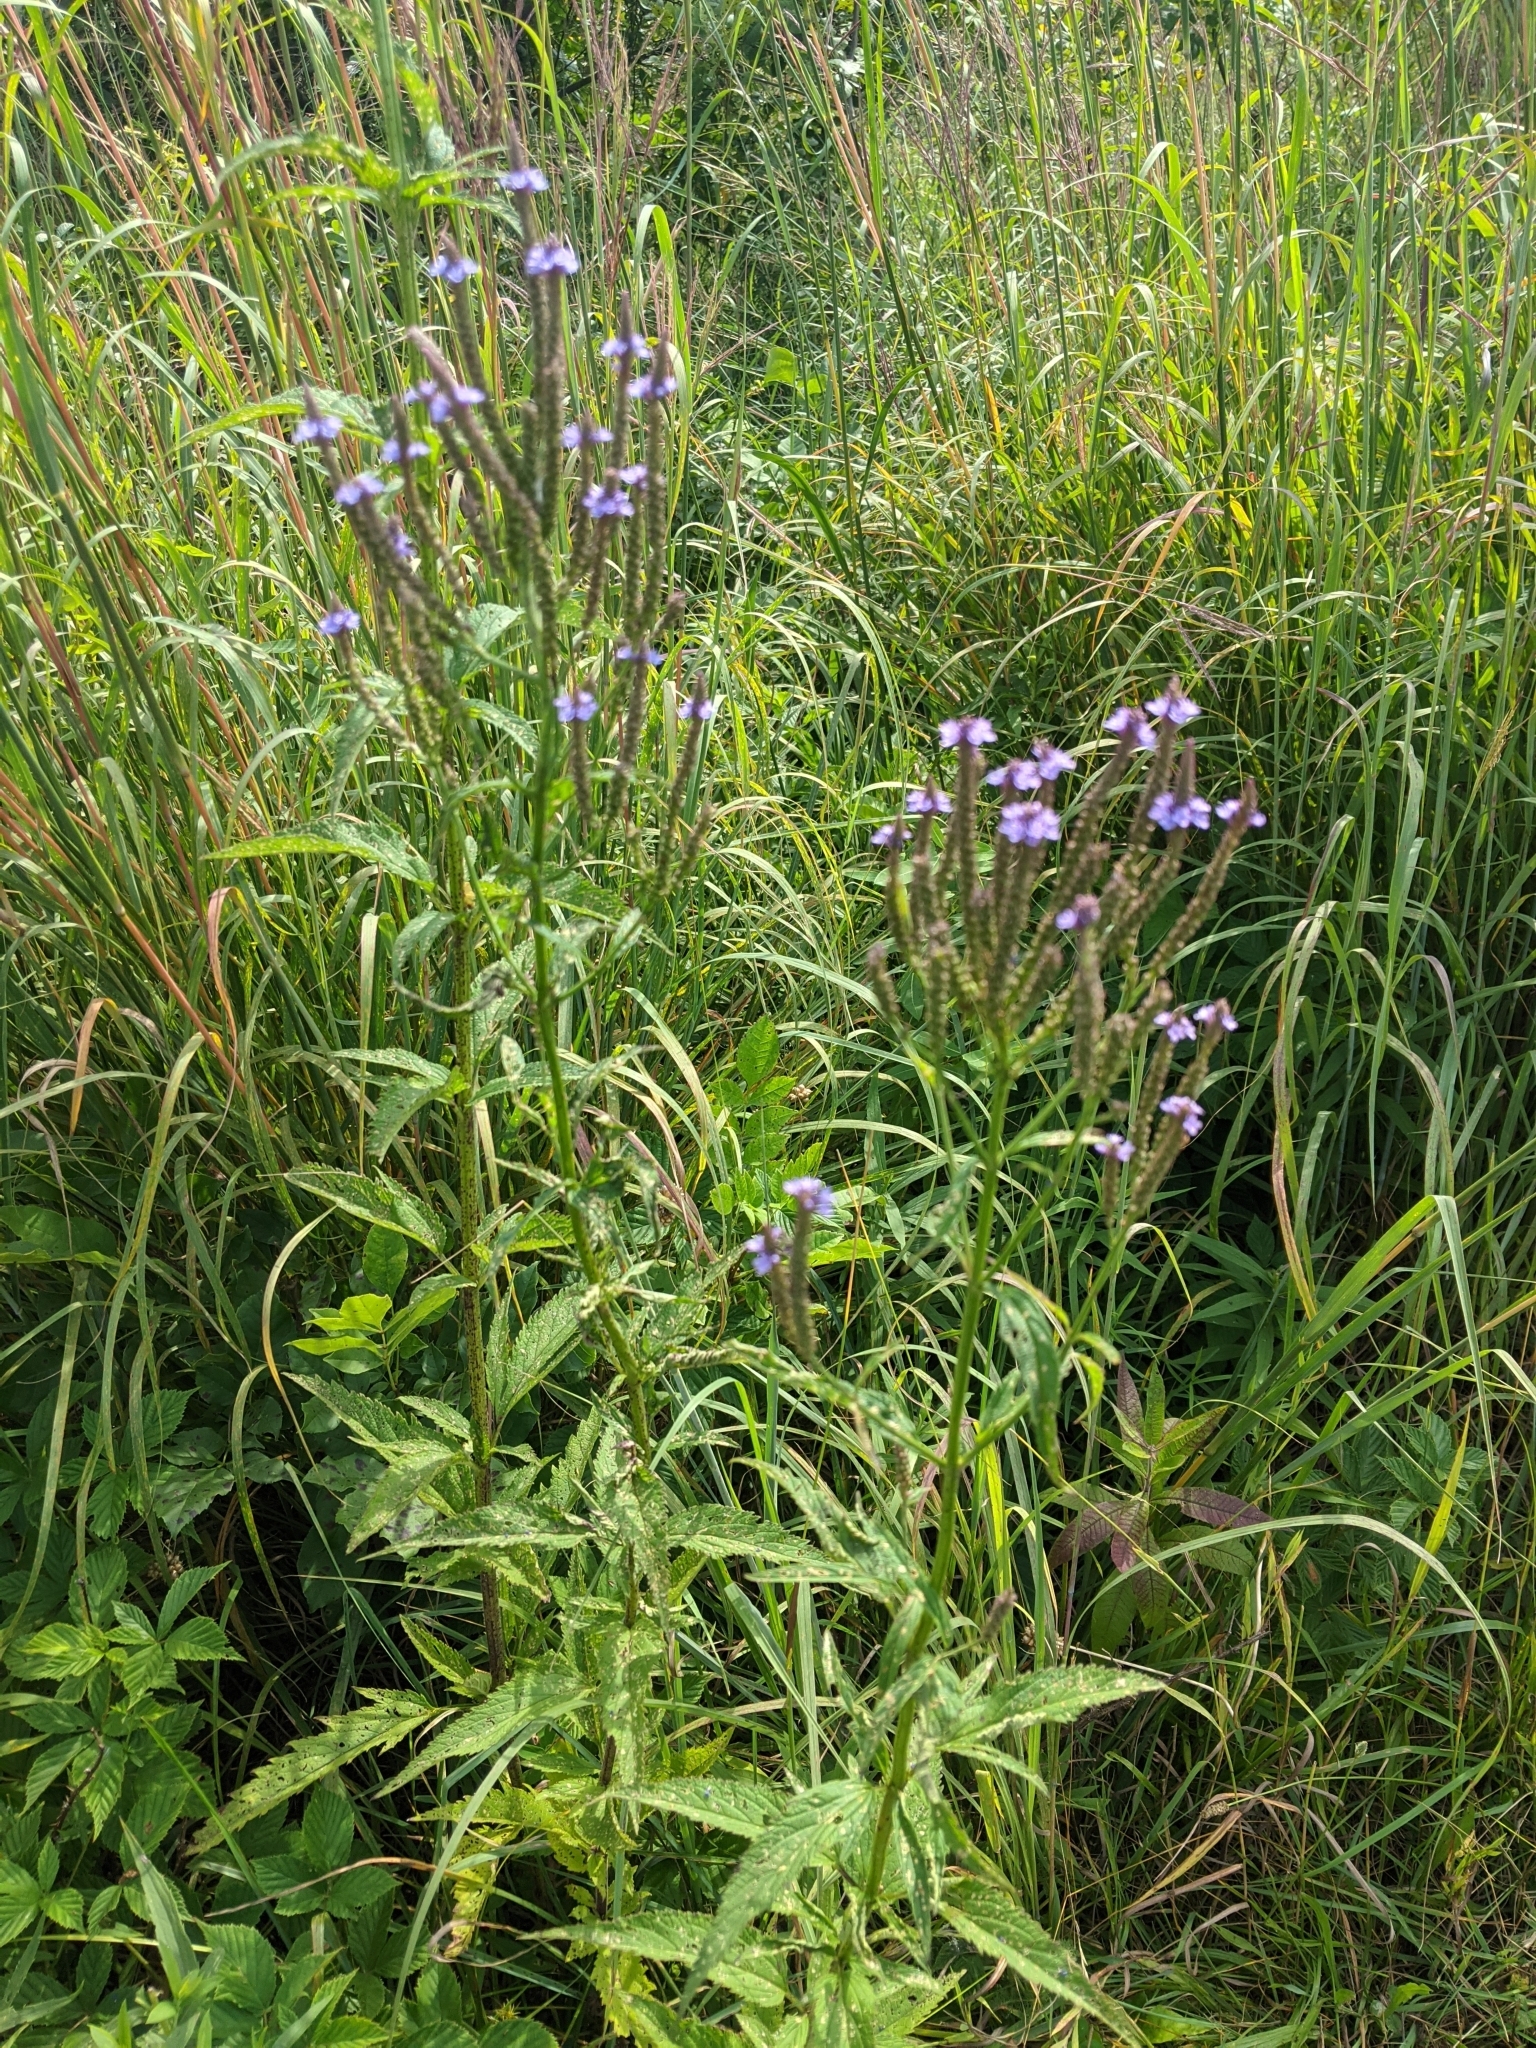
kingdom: Plantae
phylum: Tracheophyta
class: Magnoliopsida
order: Lamiales
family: Verbenaceae
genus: Verbena
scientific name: Verbena hastata
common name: American blue vervain
